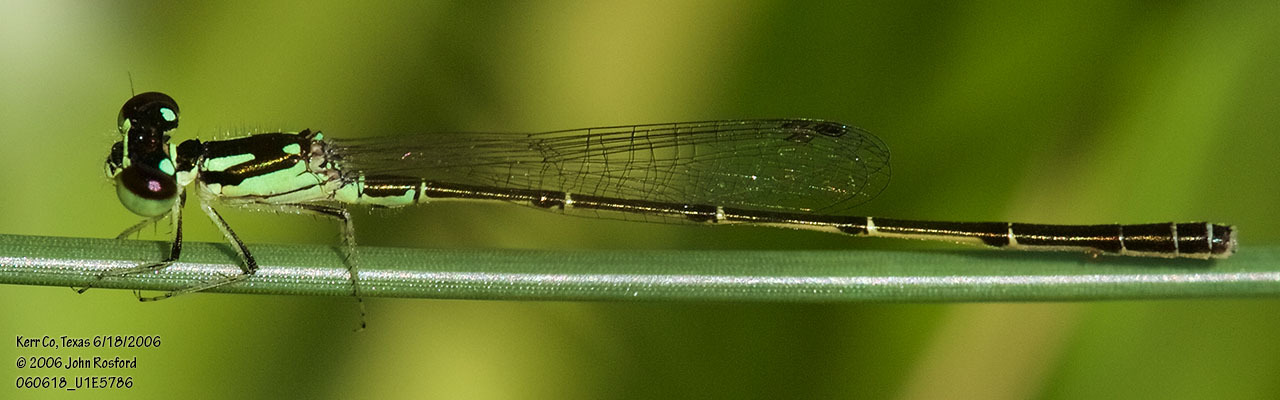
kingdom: Animalia
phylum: Arthropoda
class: Insecta
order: Odonata
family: Coenagrionidae
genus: Ischnura
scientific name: Ischnura posita
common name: Fragile forktail
